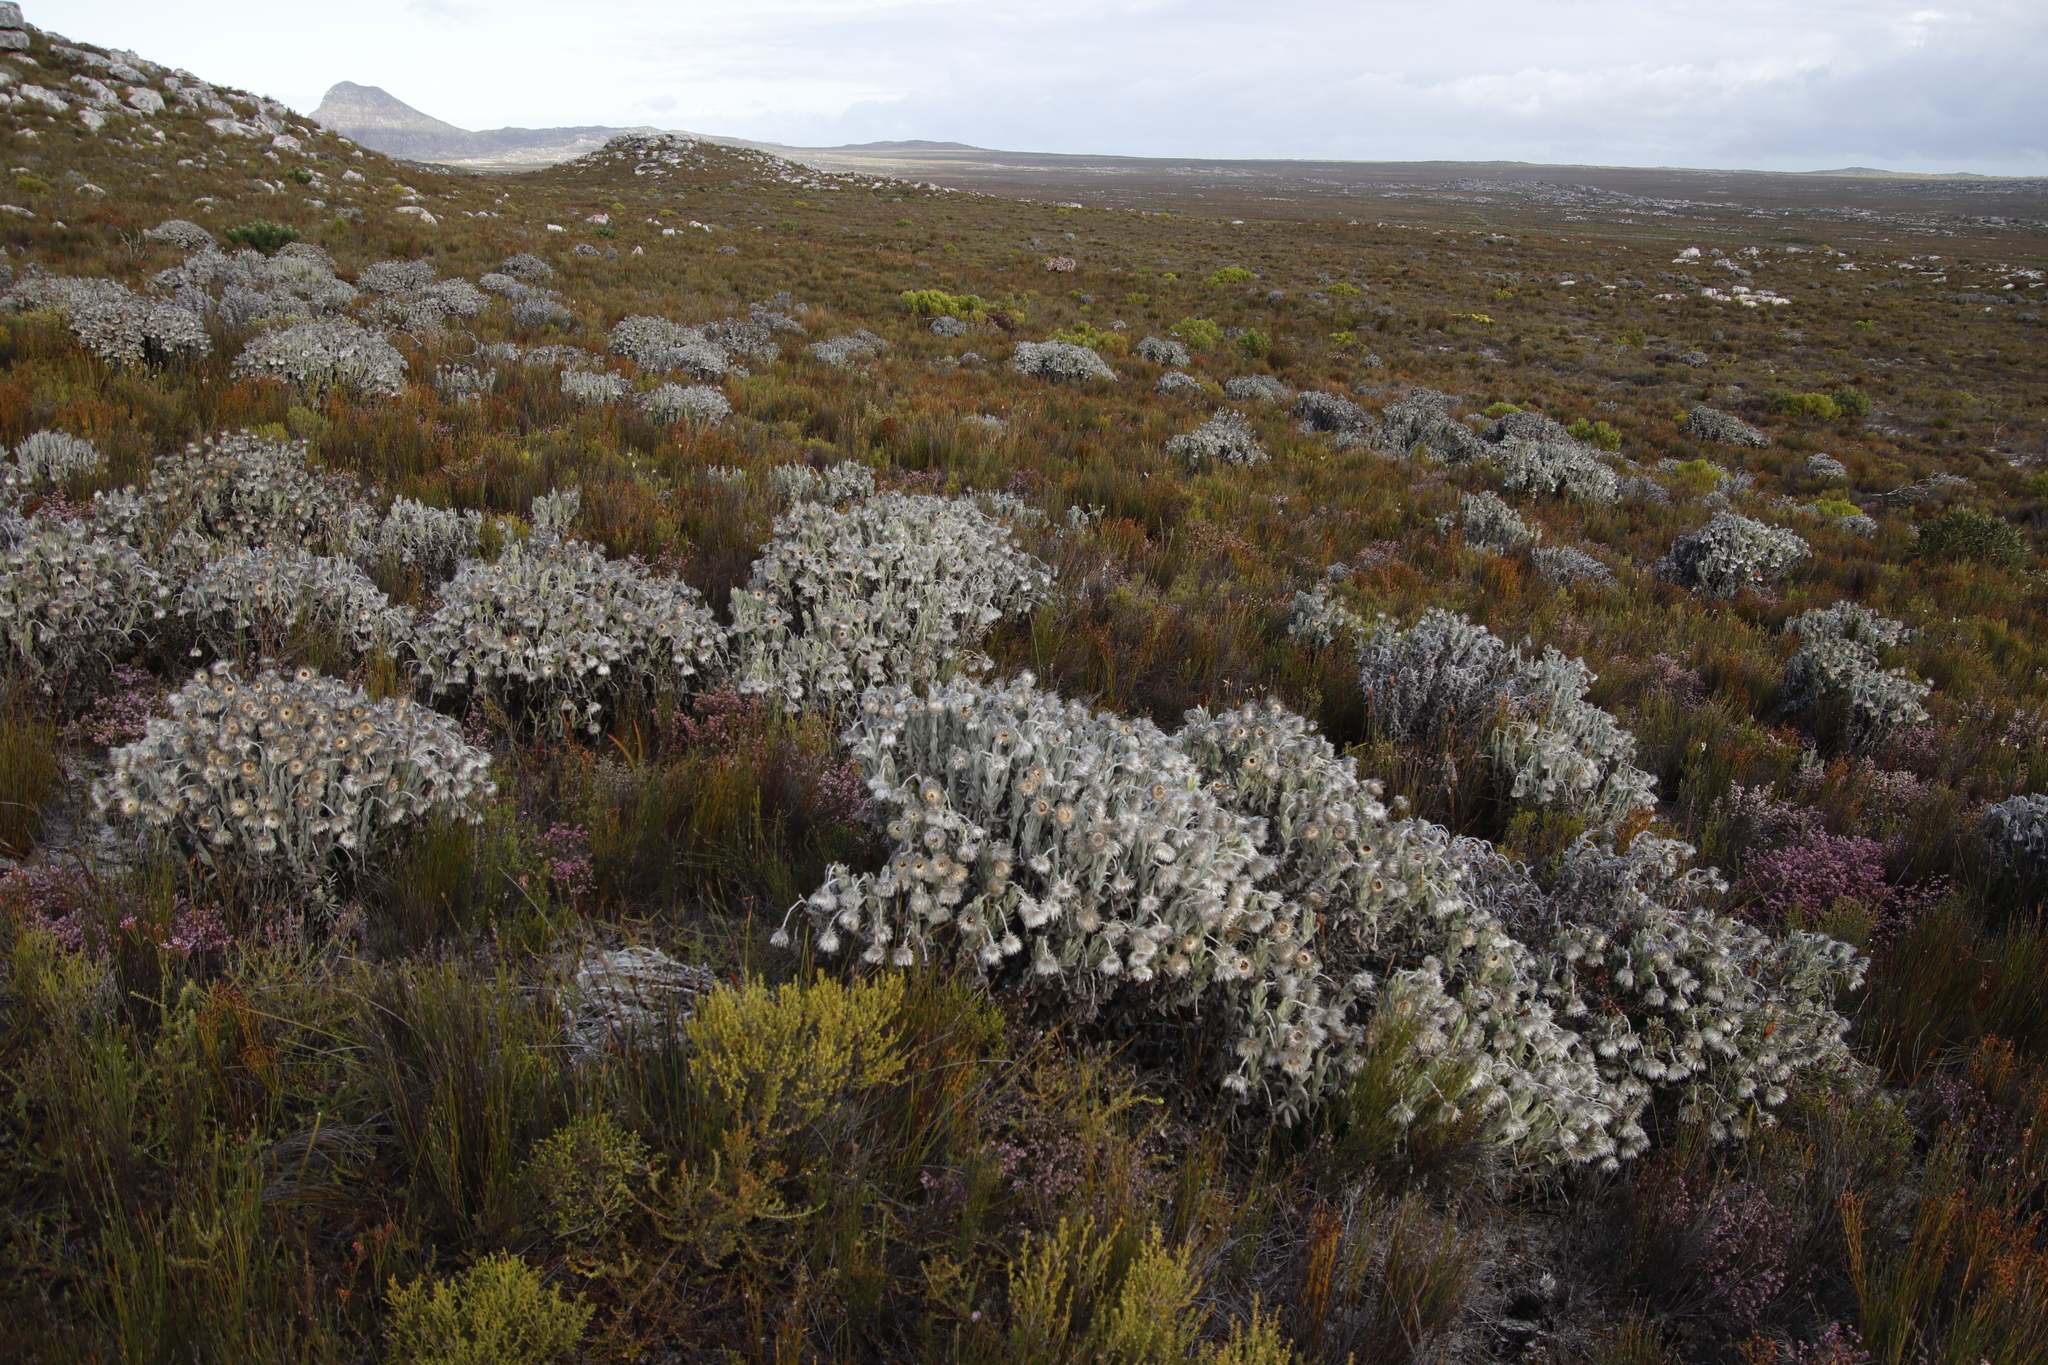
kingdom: Plantae
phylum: Tracheophyta
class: Magnoliopsida
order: Asterales
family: Asteraceae
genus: Syncarpha
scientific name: Syncarpha vestita
